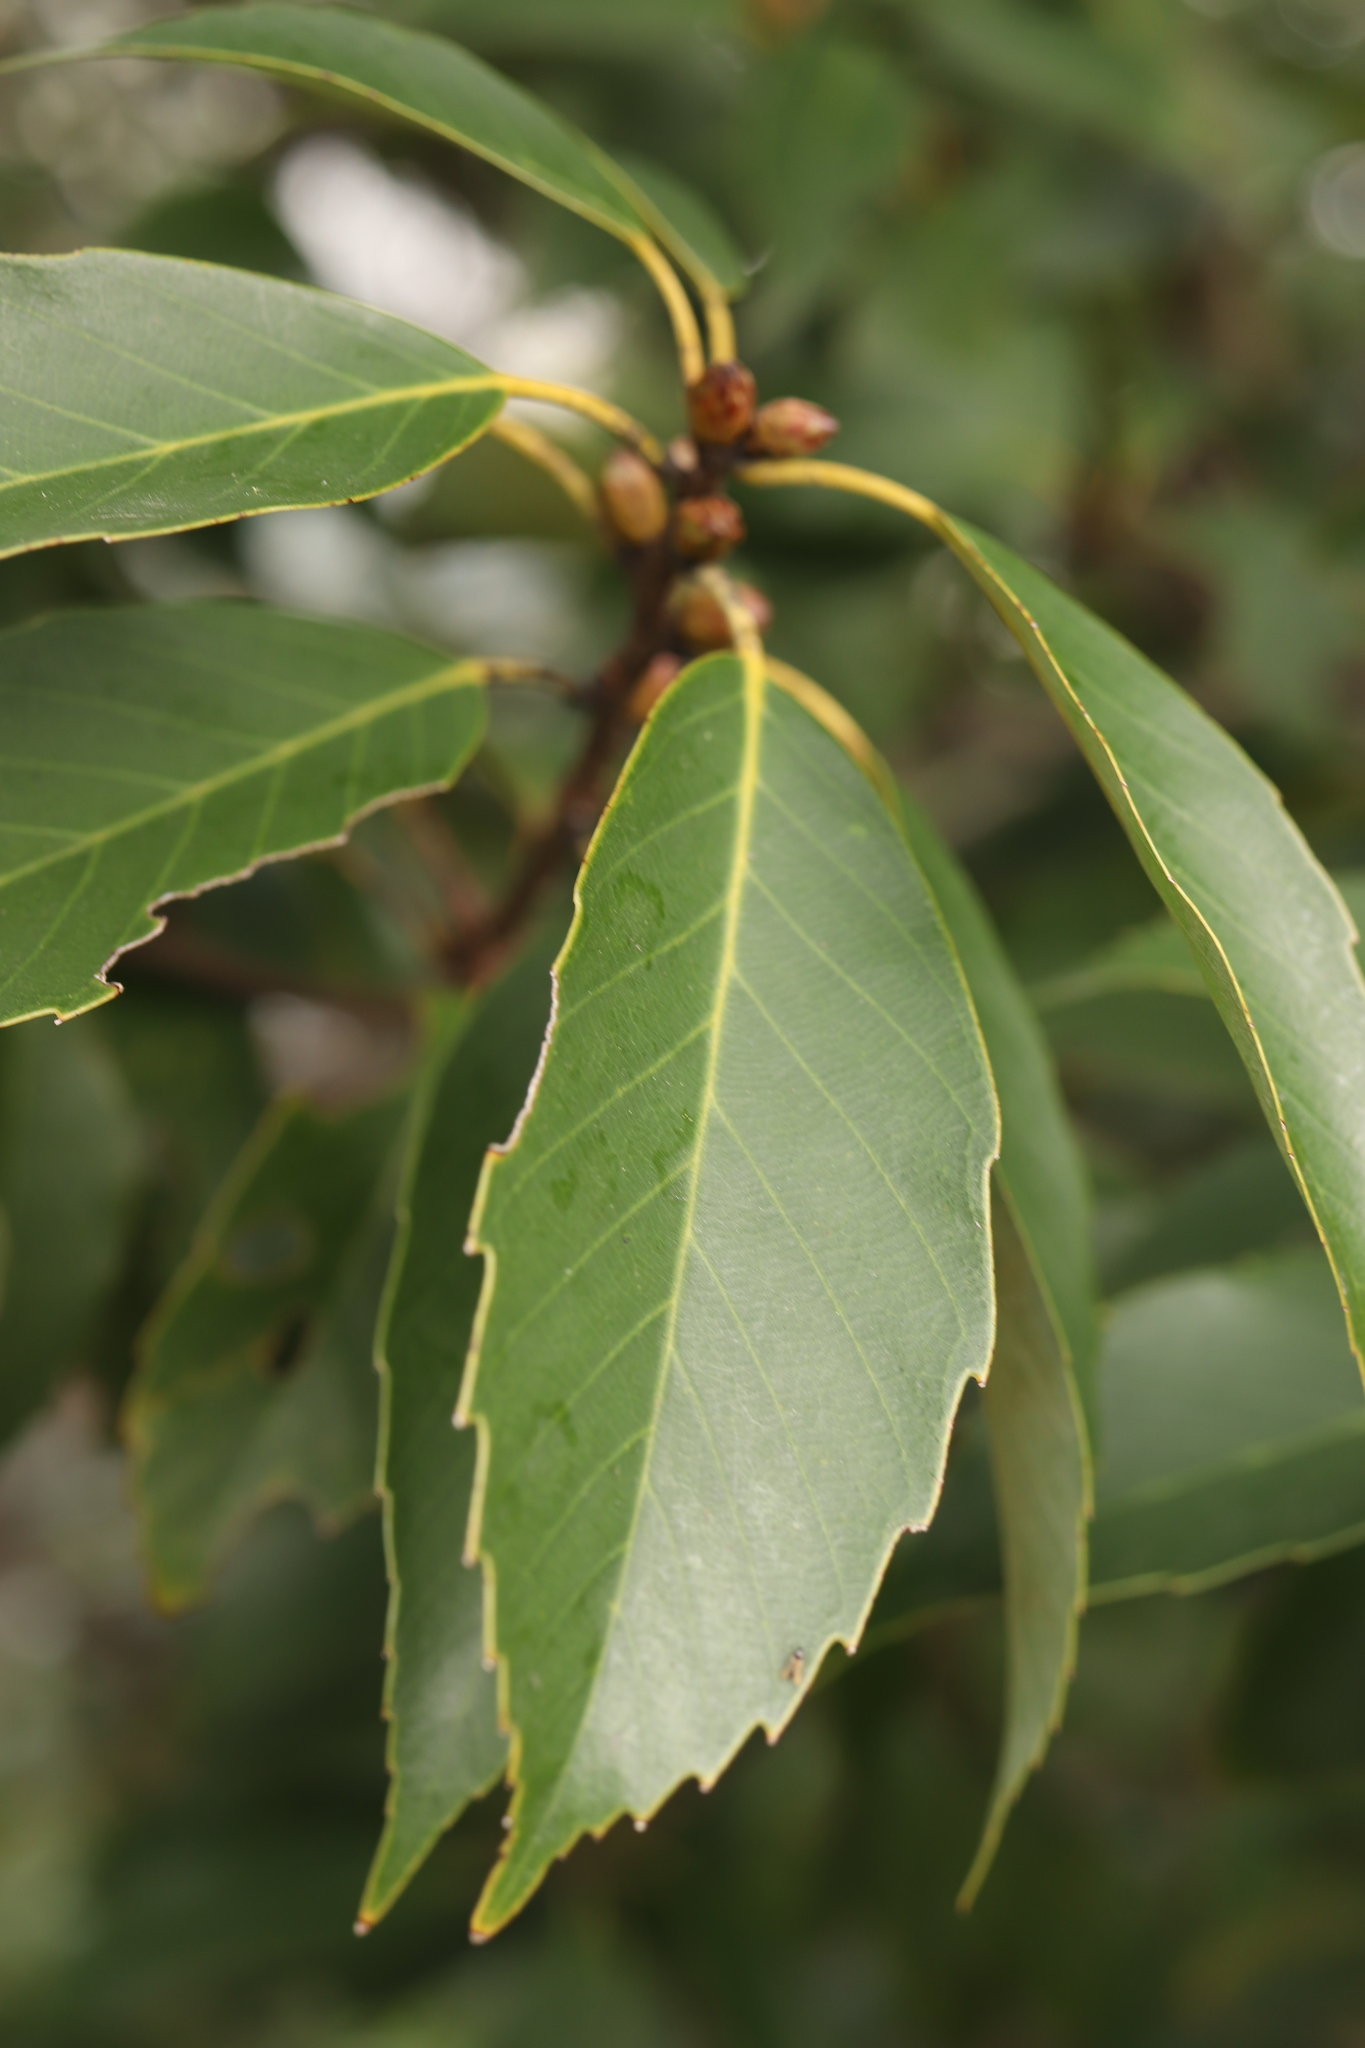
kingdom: Plantae
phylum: Tracheophyta
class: Magnoliopsida
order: Fagales
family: Fagaceae
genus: Quercus
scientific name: Quercus glauca
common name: Ring-cup oak
